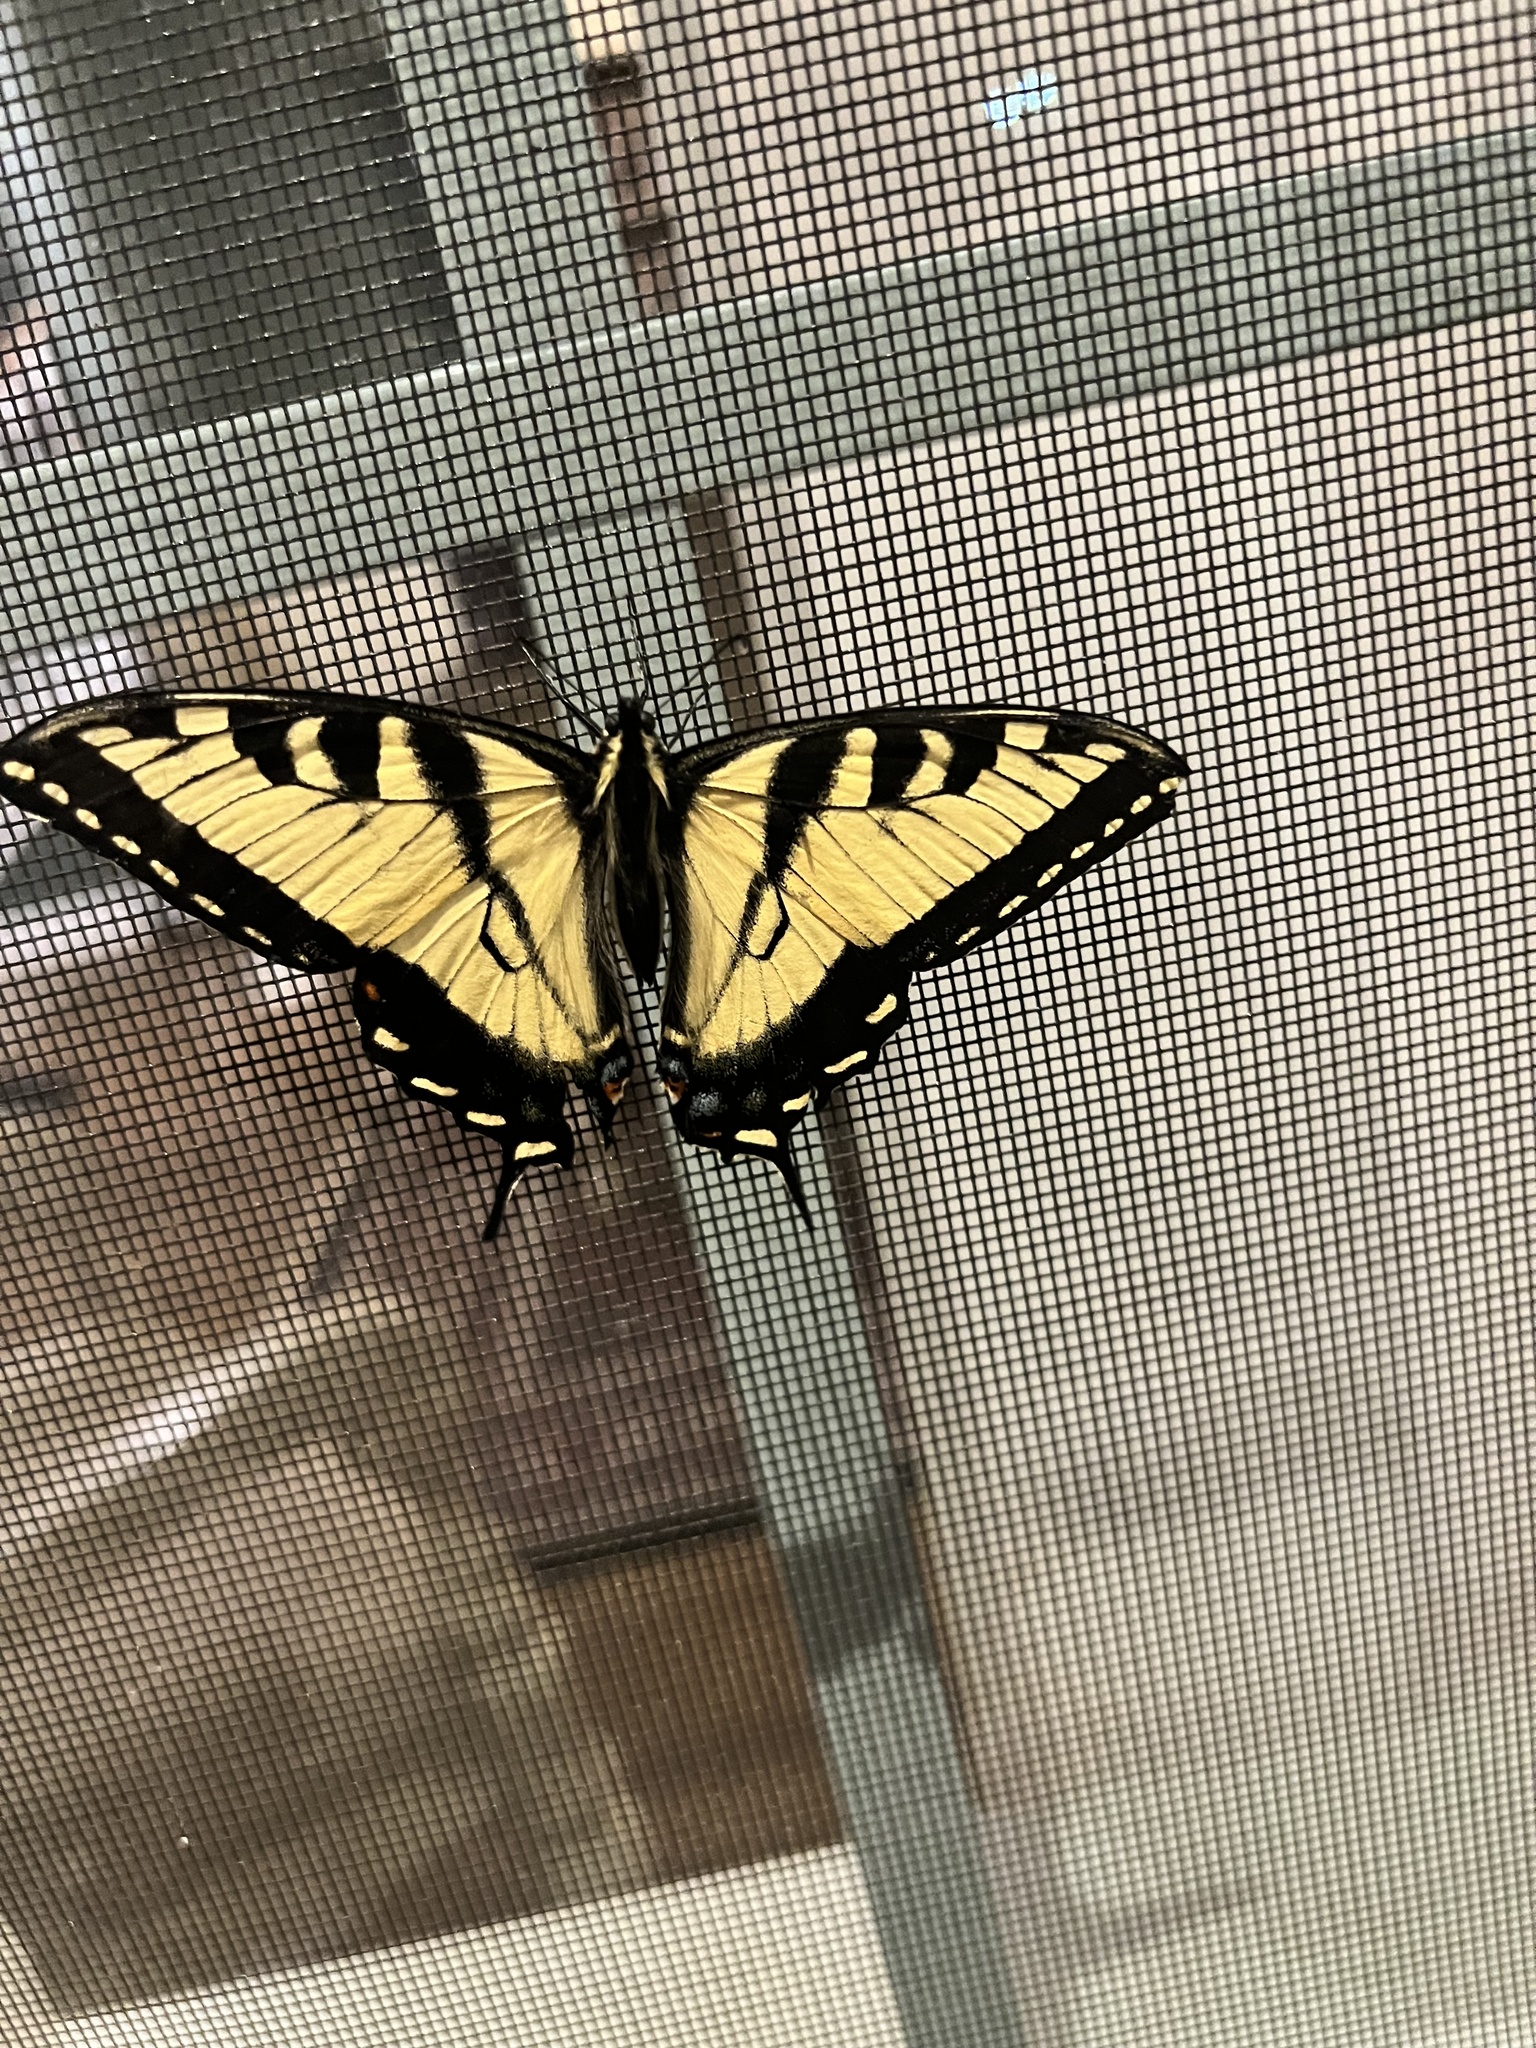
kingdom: Animalia
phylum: Arthropoda
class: Insecta
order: Lepidoptera
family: Papilionidae
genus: Papilio
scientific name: Papilio glaucus
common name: Tiger swallowtail
